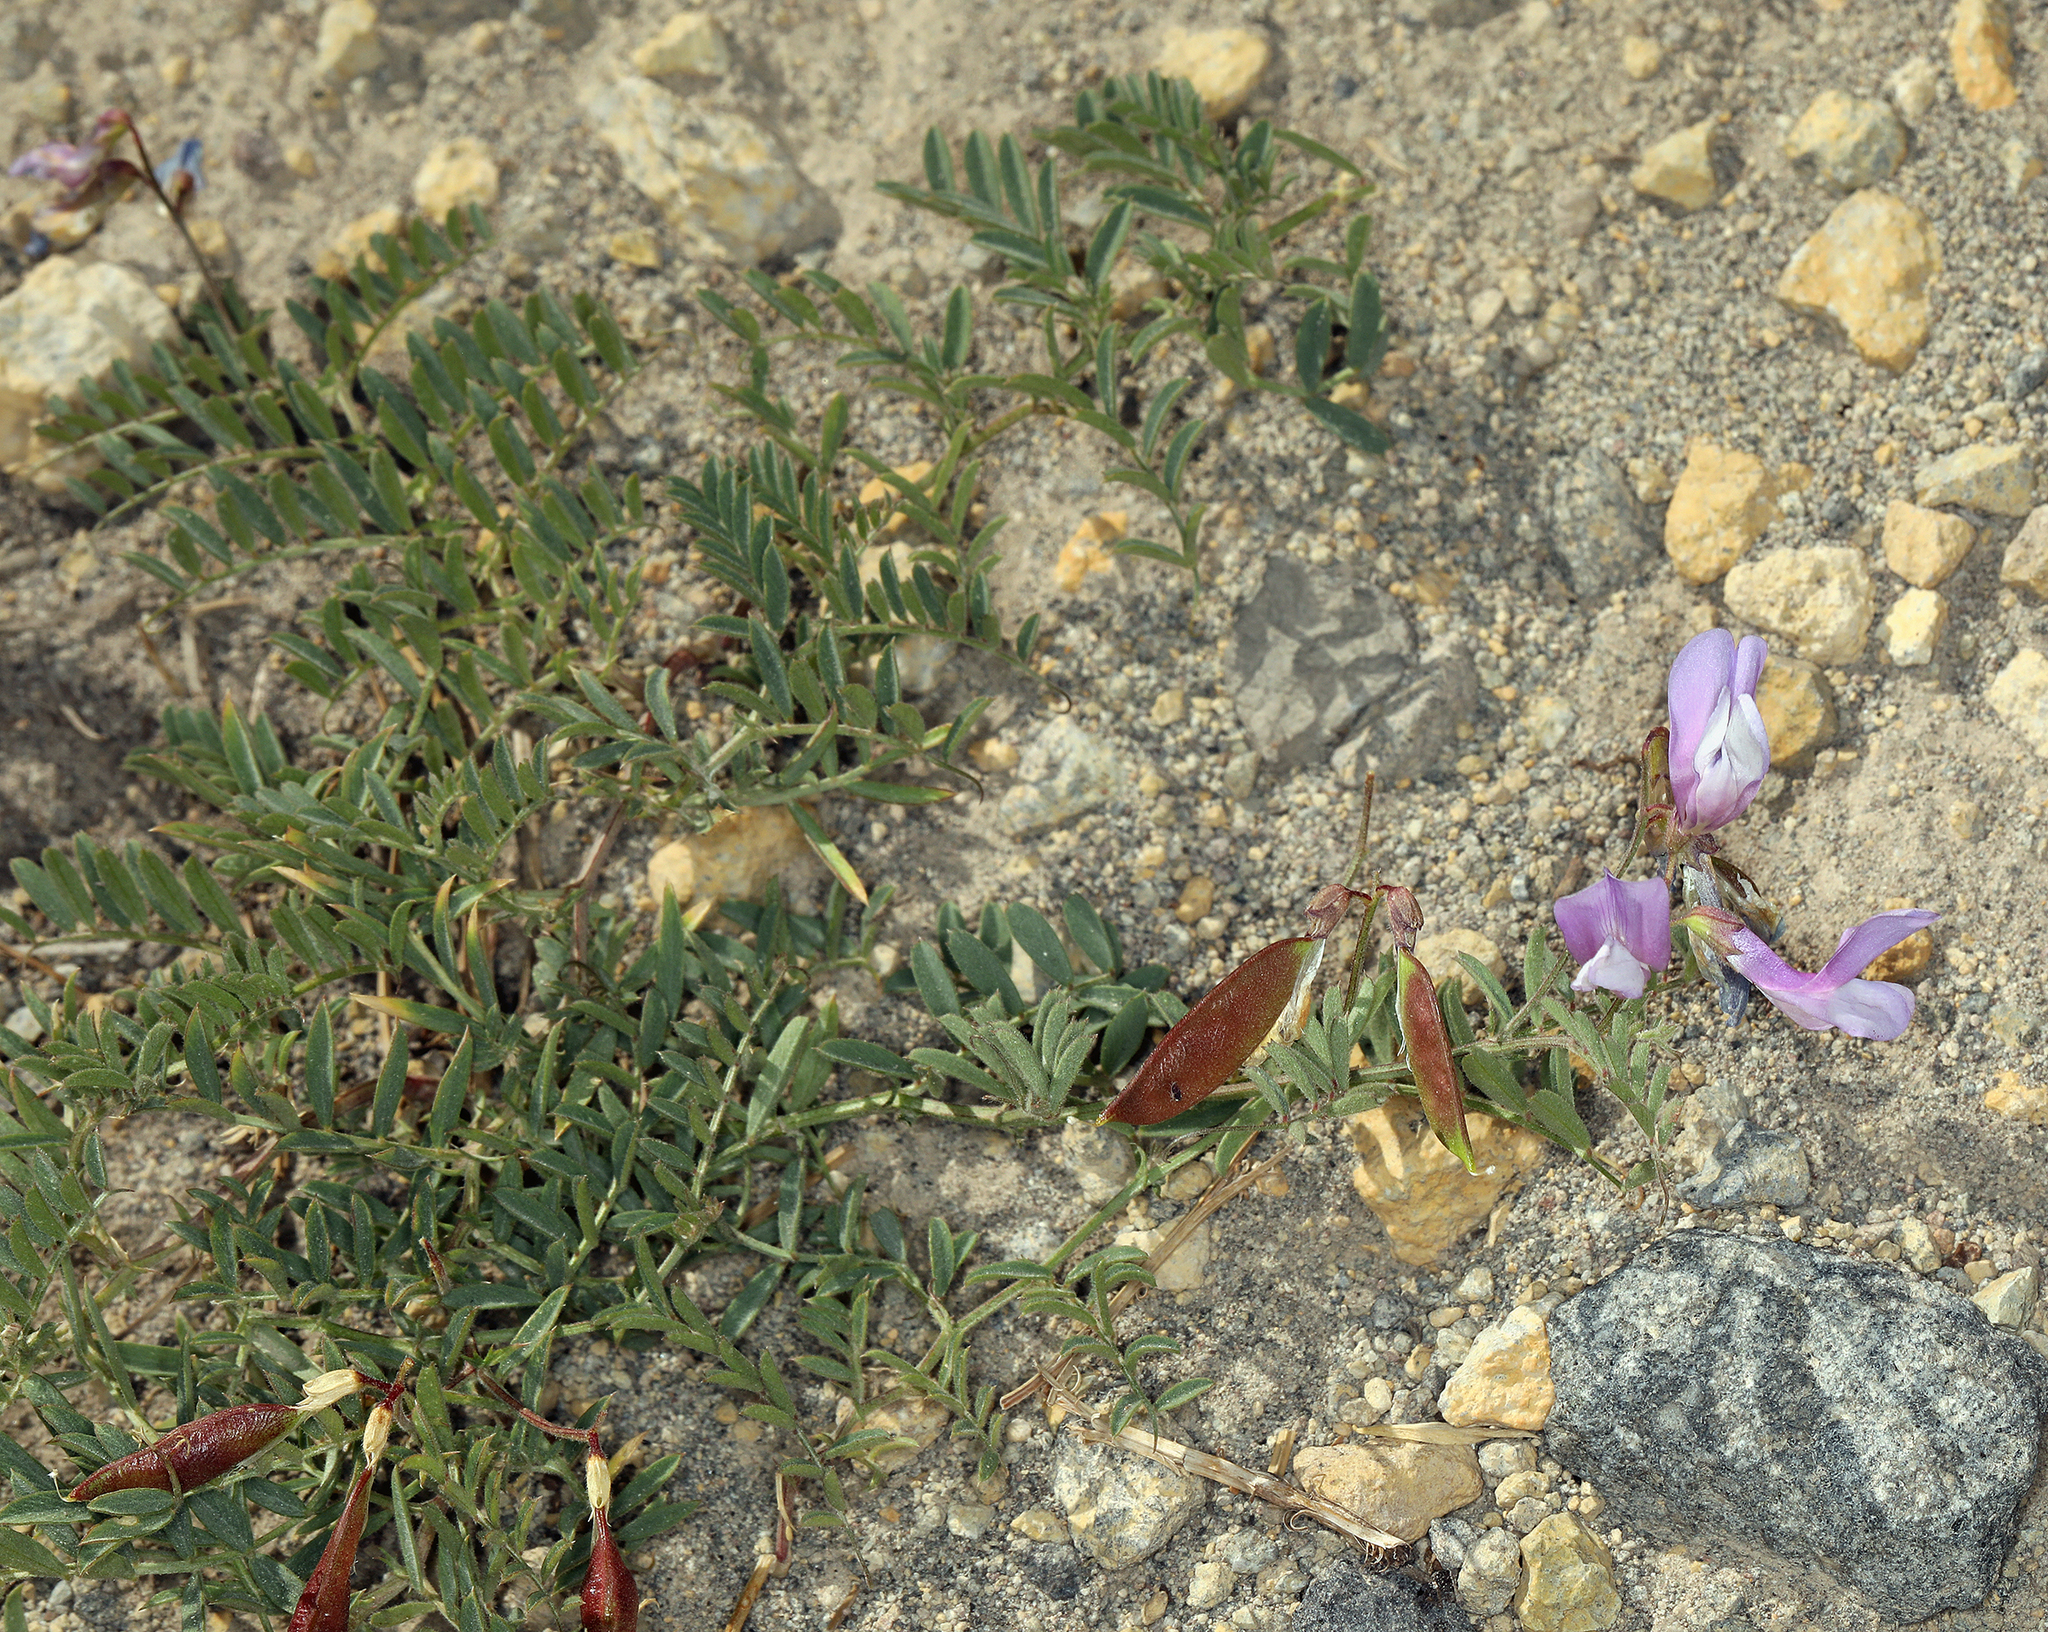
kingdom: Plantae
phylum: Tracheophyta
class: Magnoliopsida
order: Fabales
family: Fabaceae
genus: Vicia
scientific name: Vicia americana
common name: American vetch
